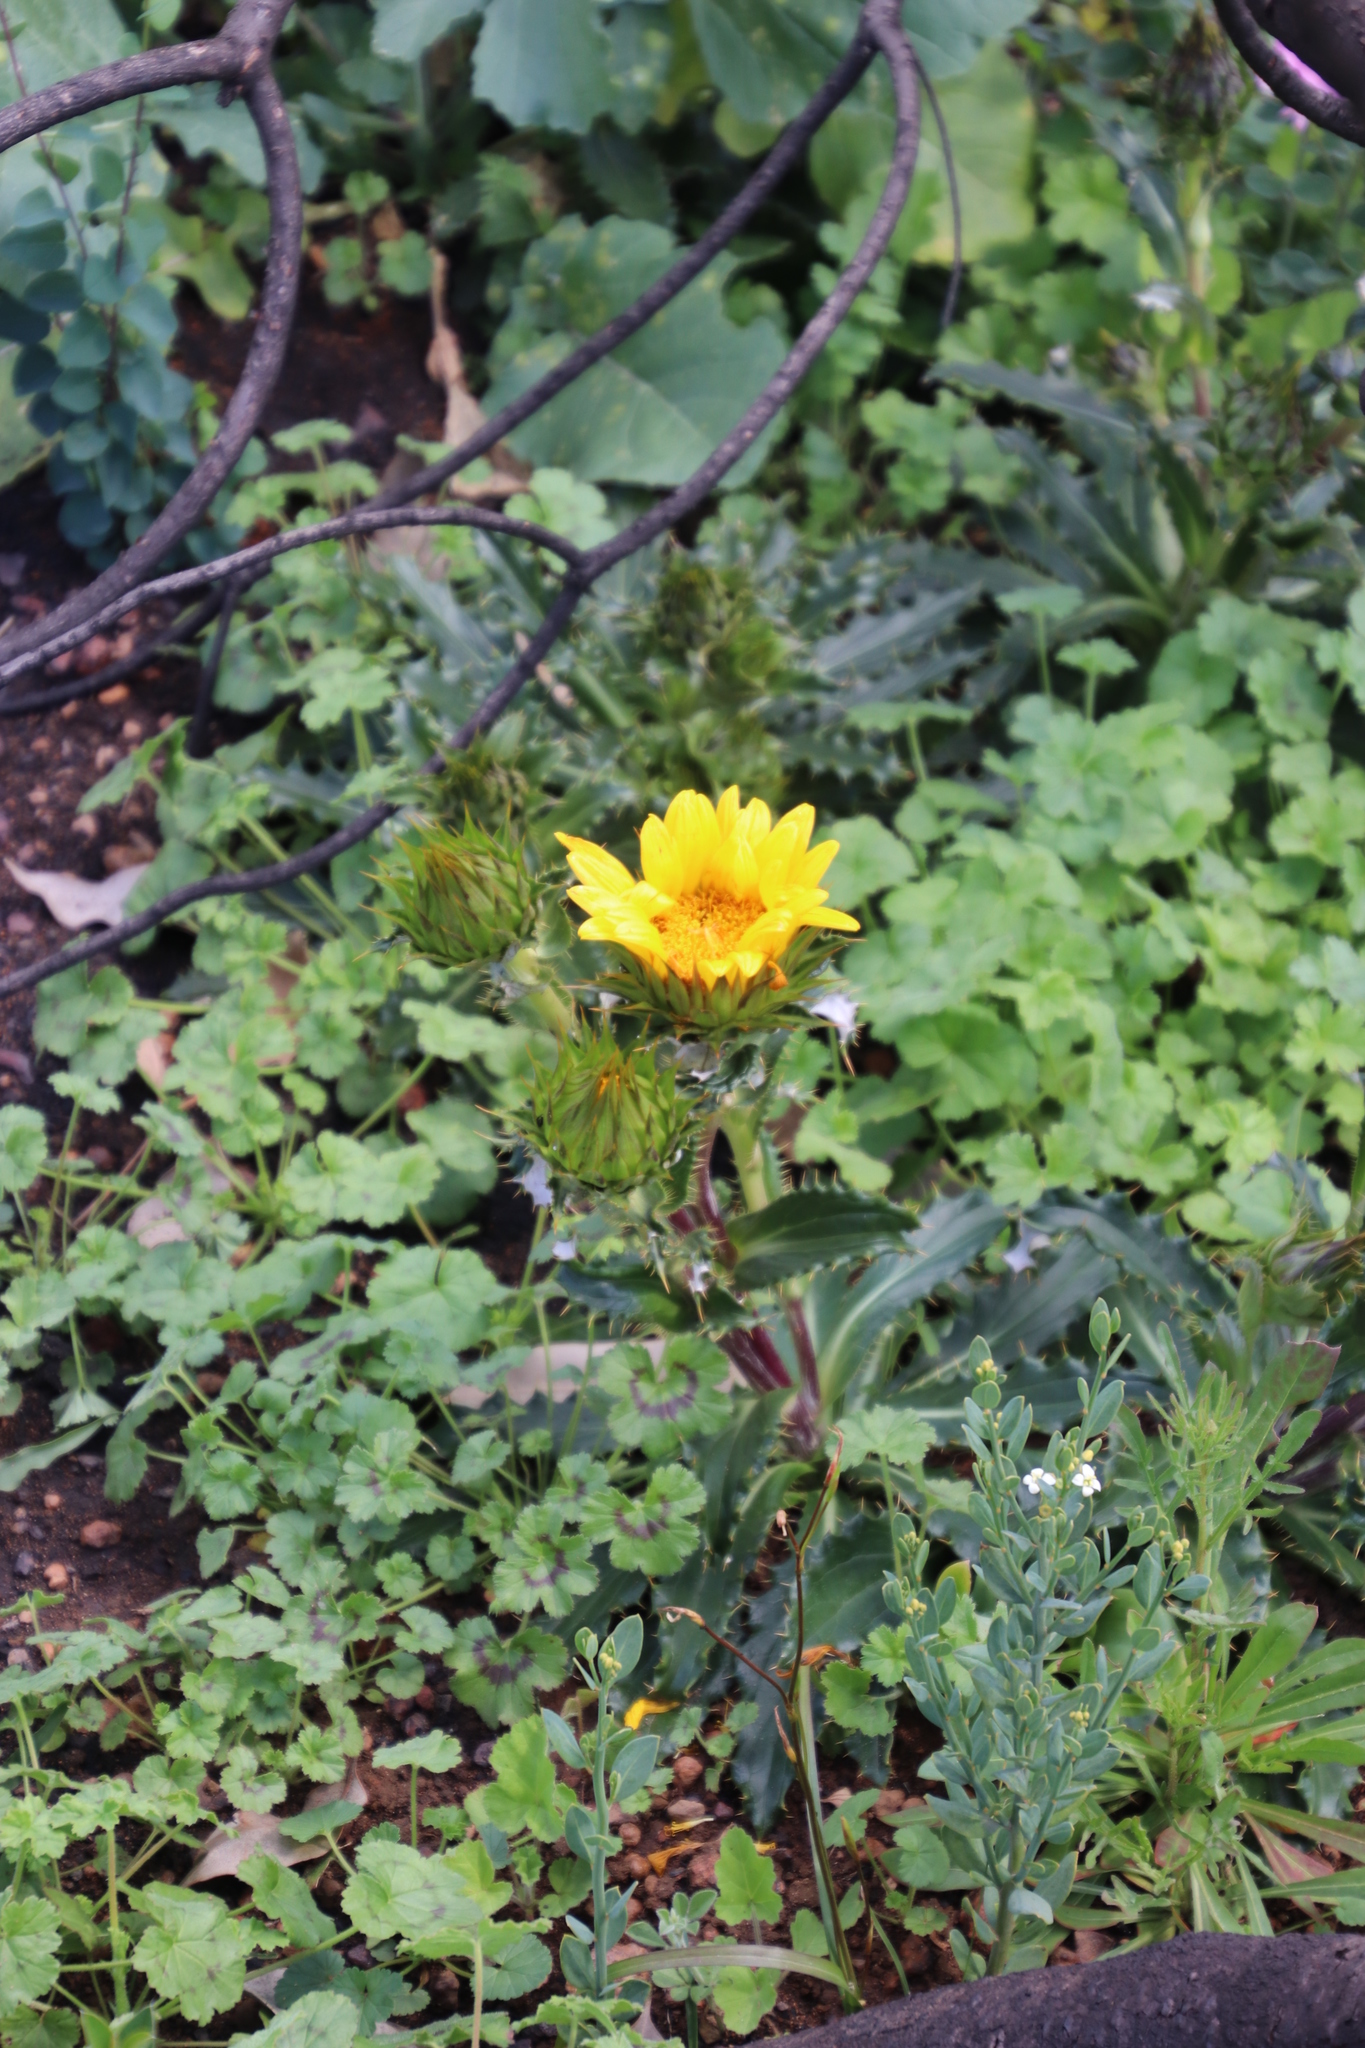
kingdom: Plantae
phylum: Tracheophyta
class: Magnoliopsida
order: Asterales
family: Asteraceae
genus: Berkheya
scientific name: Berkheya armata
